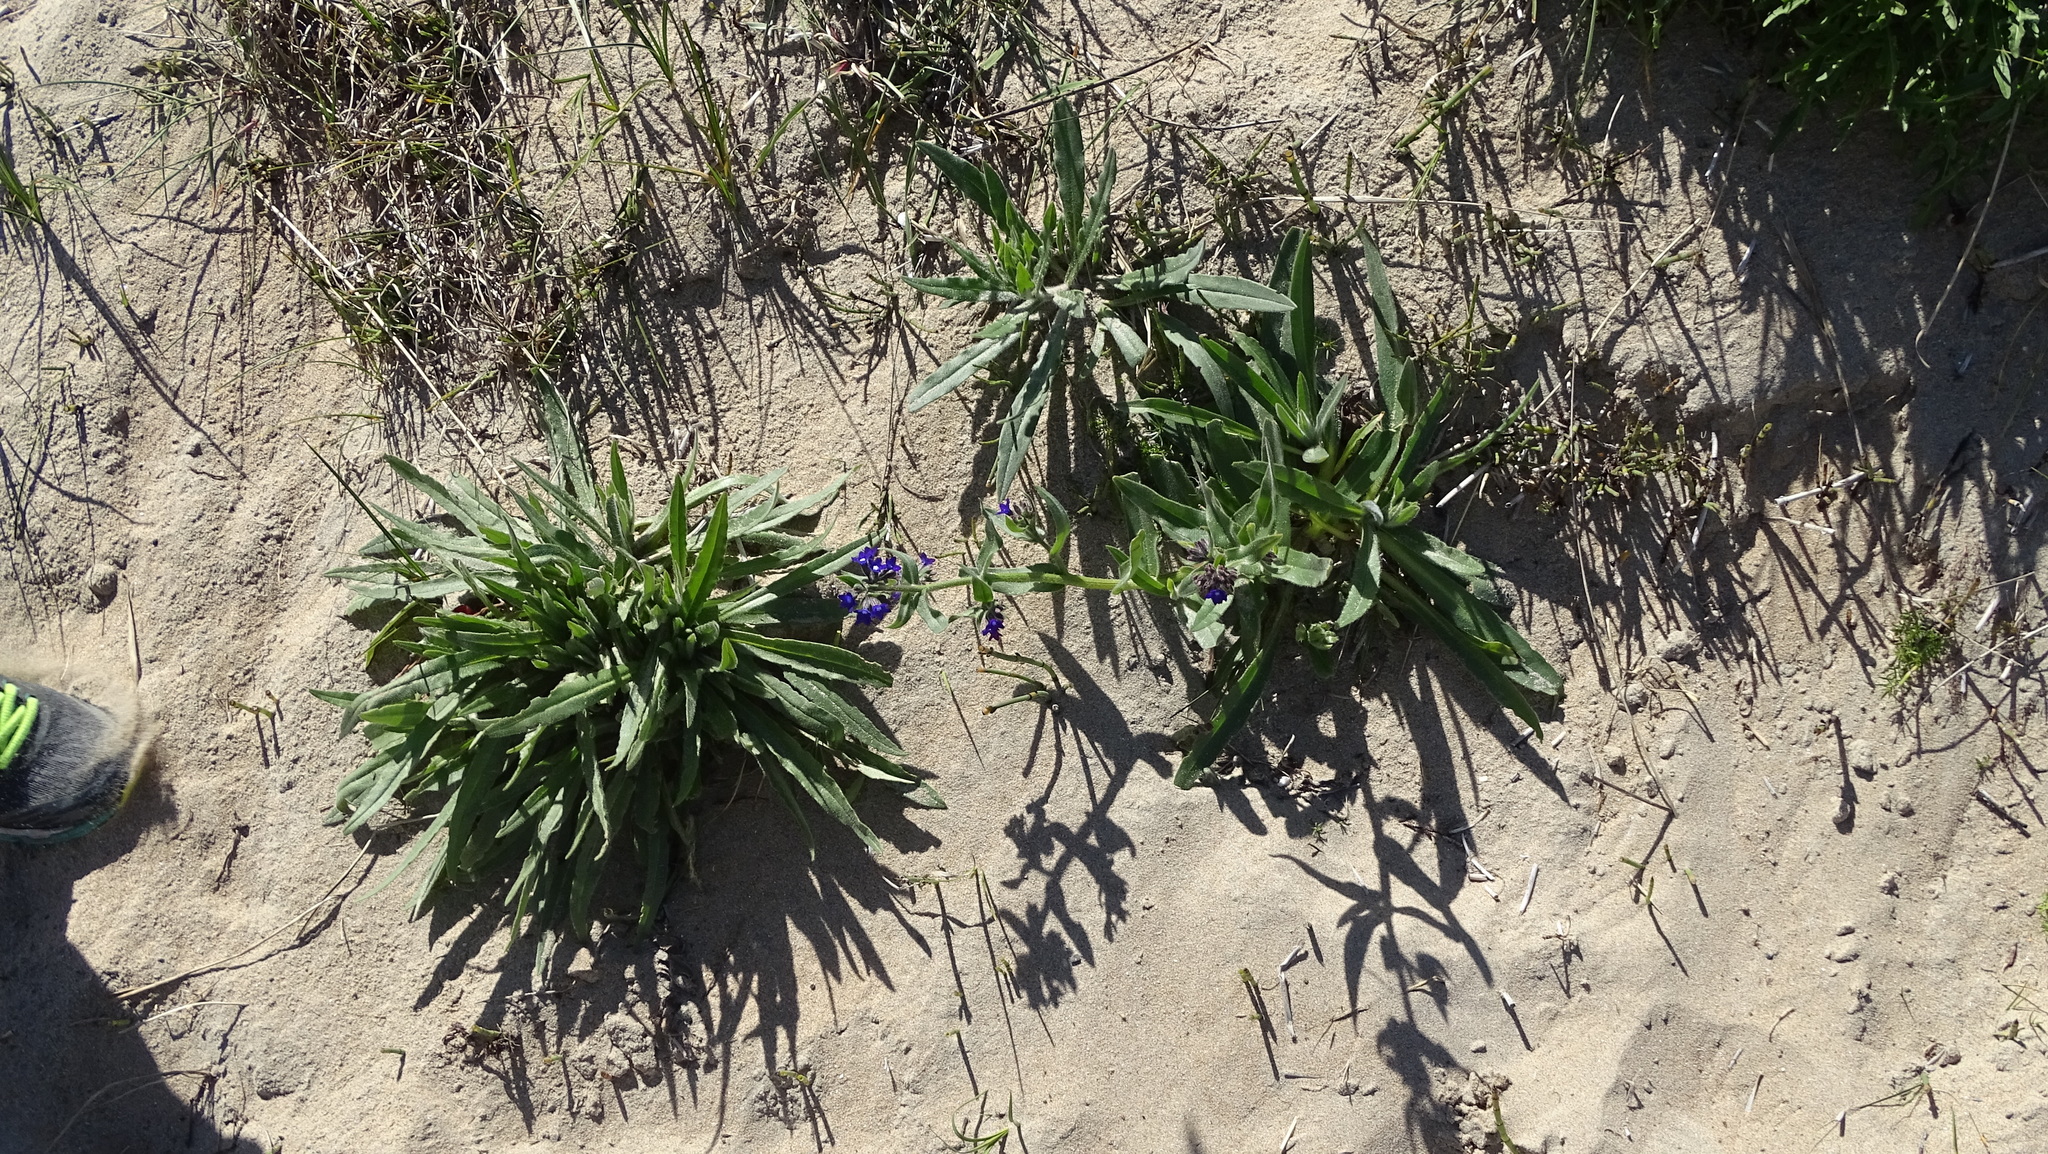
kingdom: Plantae
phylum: Tracheophyta
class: Magnoliopsida
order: Boraginales
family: Boraginaceae
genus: Anchusa
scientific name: Anchusa officinalis
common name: Alkanet
